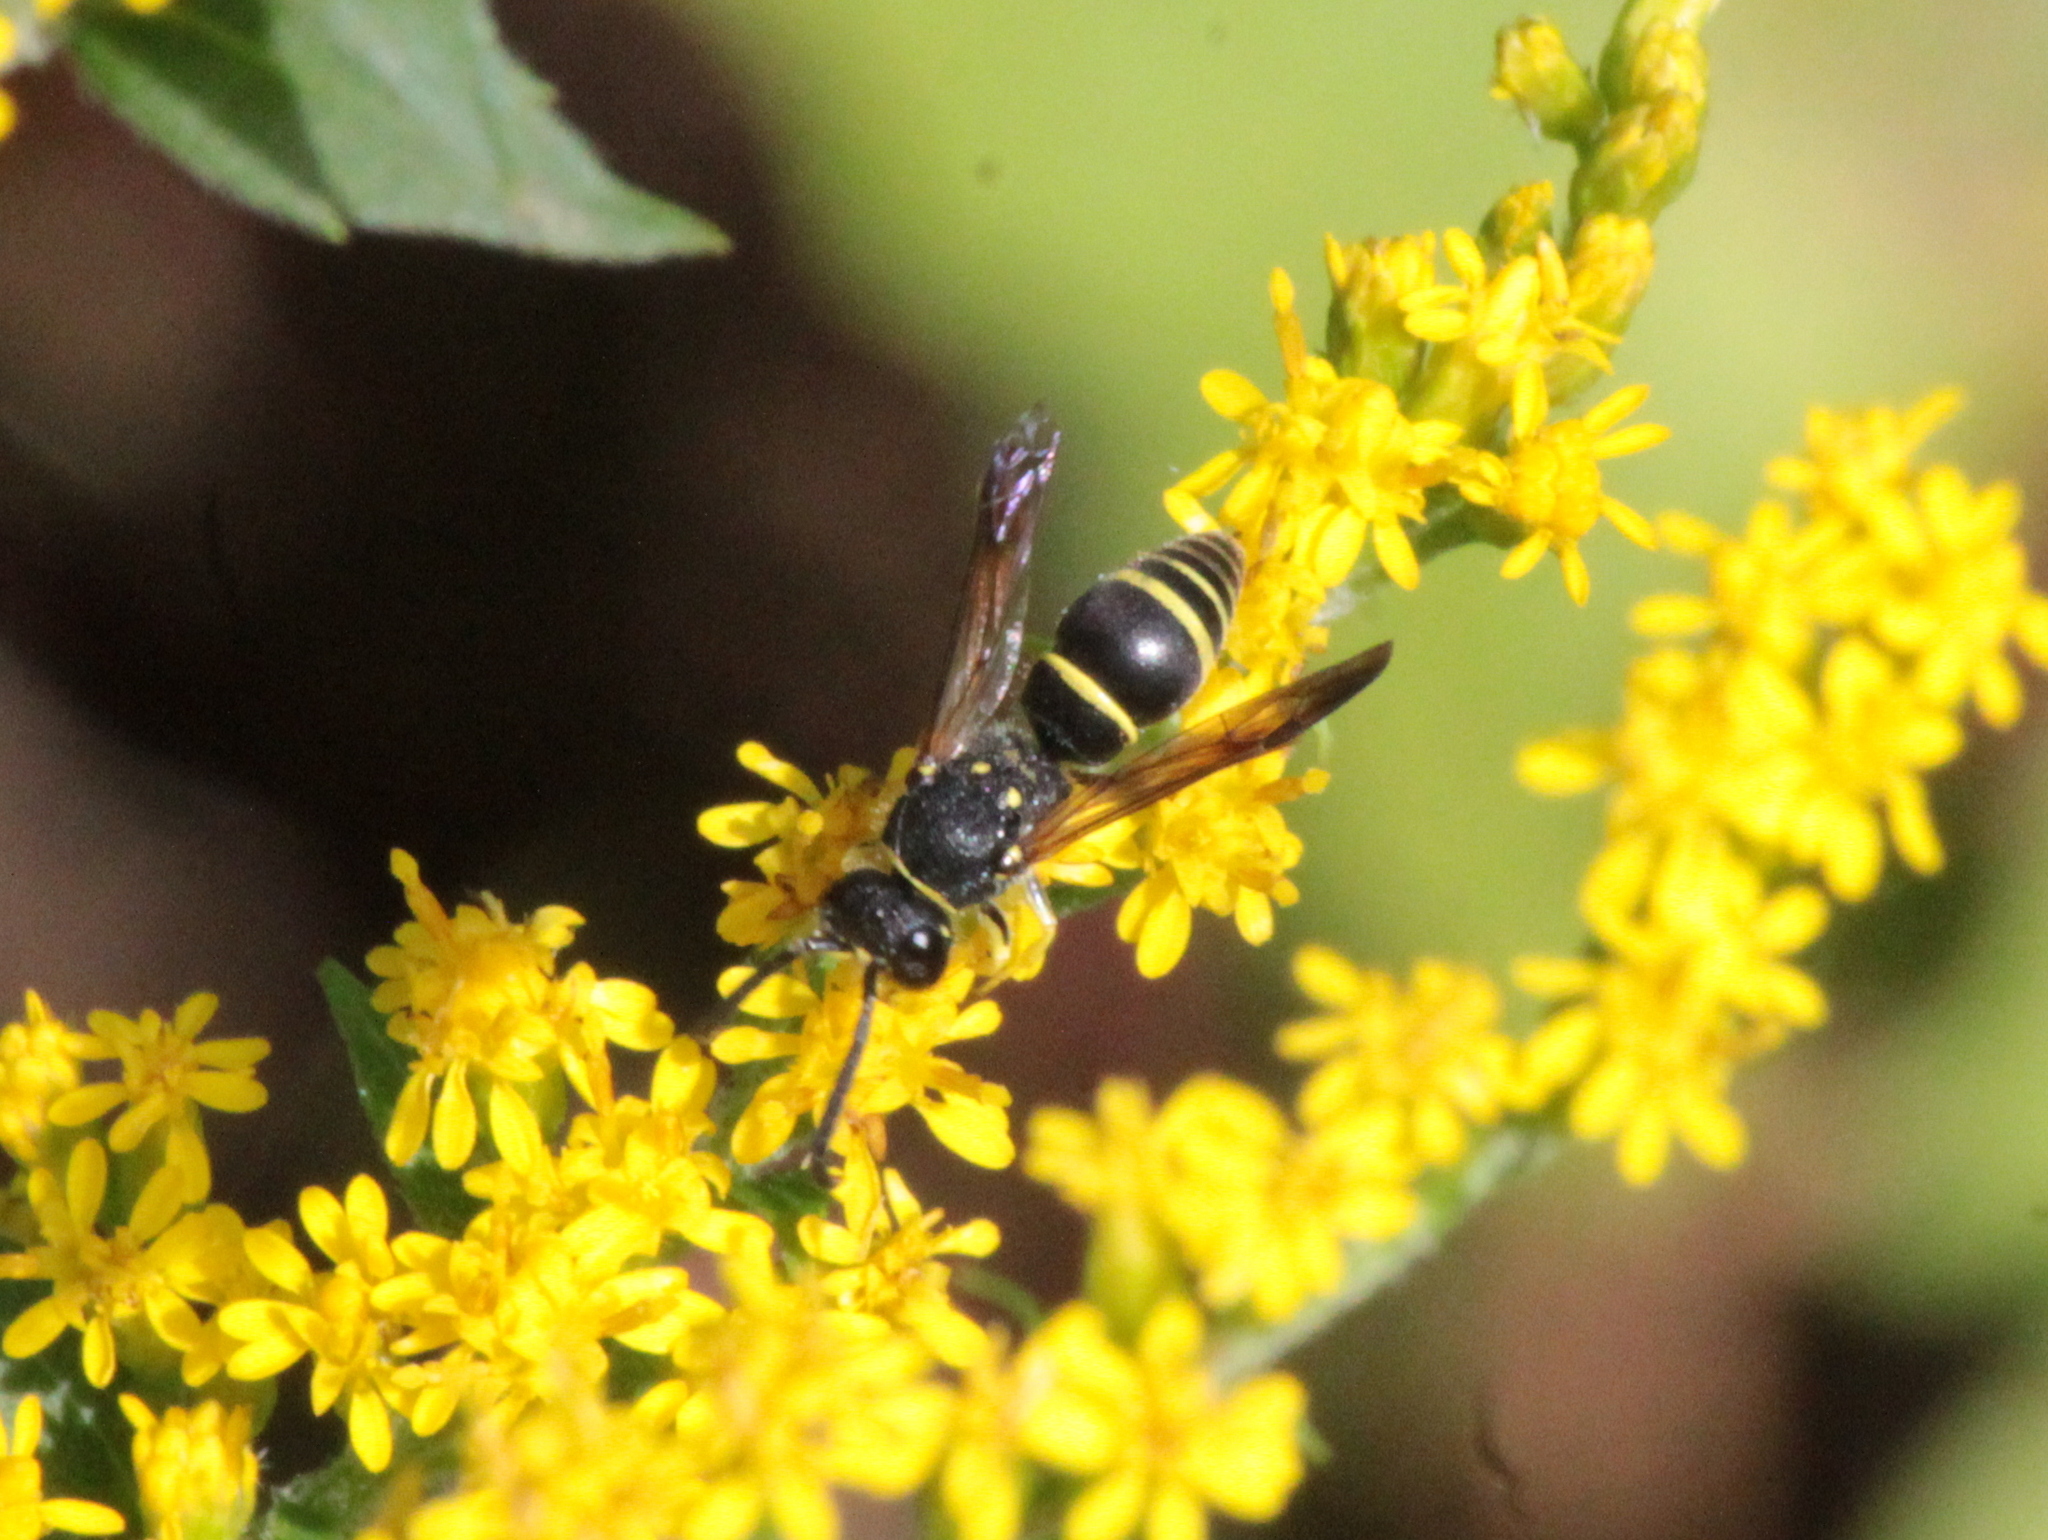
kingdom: Animalia
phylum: Arthropoda
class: Insecta
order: Hymenoptera
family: Vespidae
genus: Ancistrocerus
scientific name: Ancistrocerus adiabatus
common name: Bramble mason wasp
